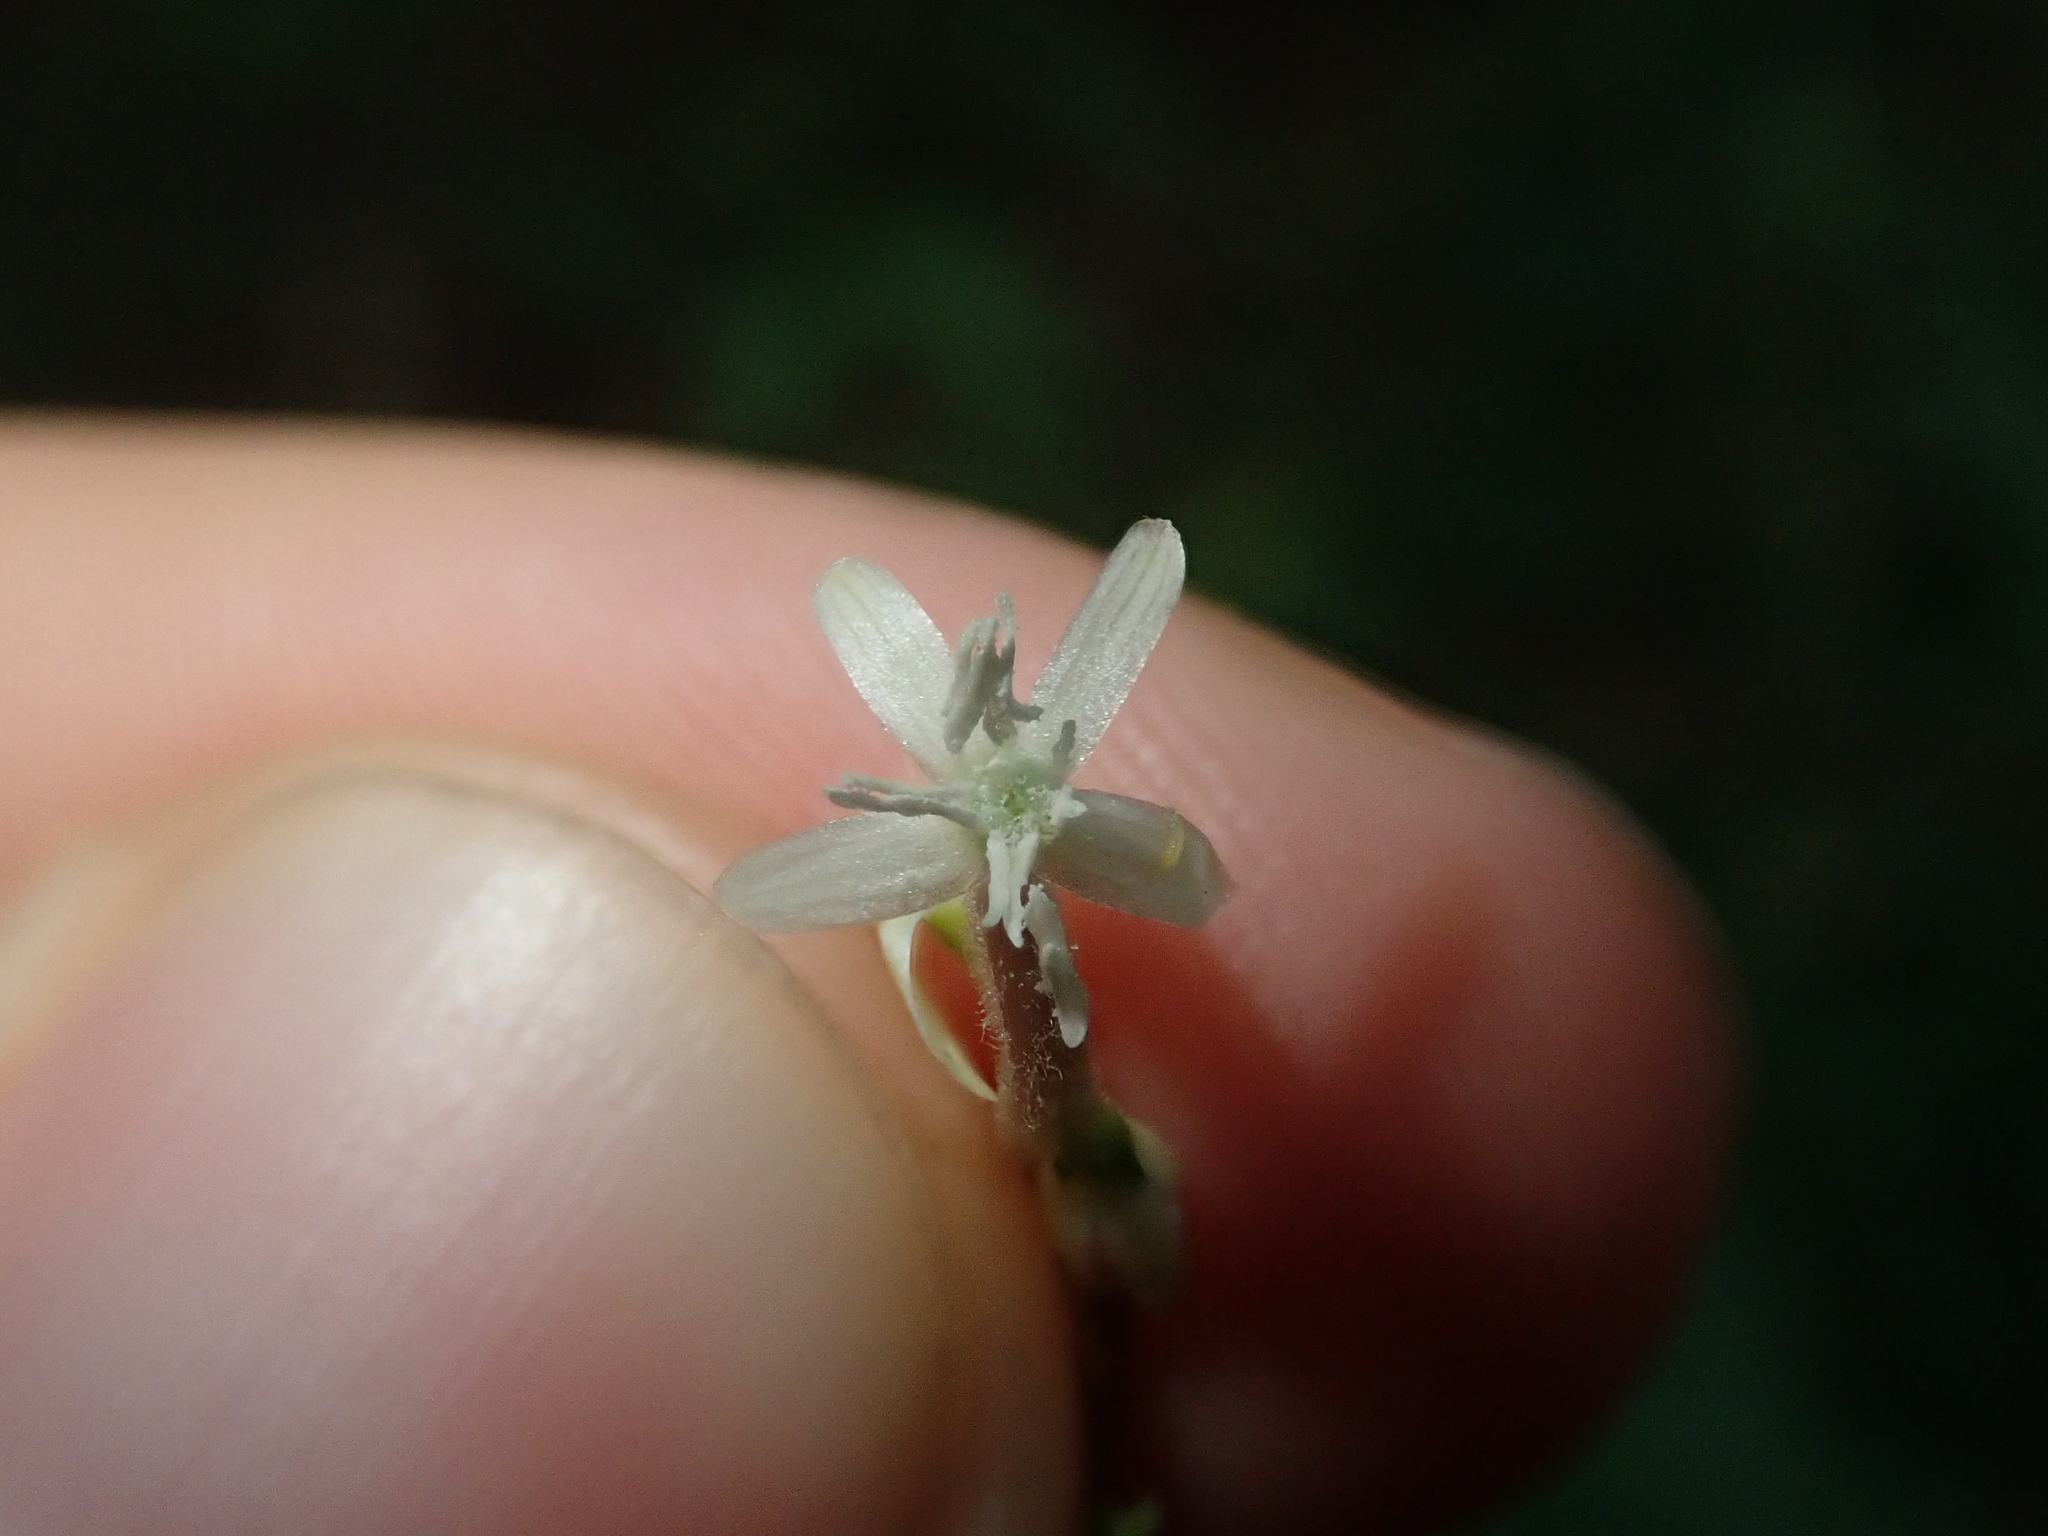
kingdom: Plantae
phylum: Tracheophyta
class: Magnoliopsida
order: Caryophyllales
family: Phytolaccaceae
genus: Petiveria
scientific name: Petiveria alliacea
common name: Garlicweed
